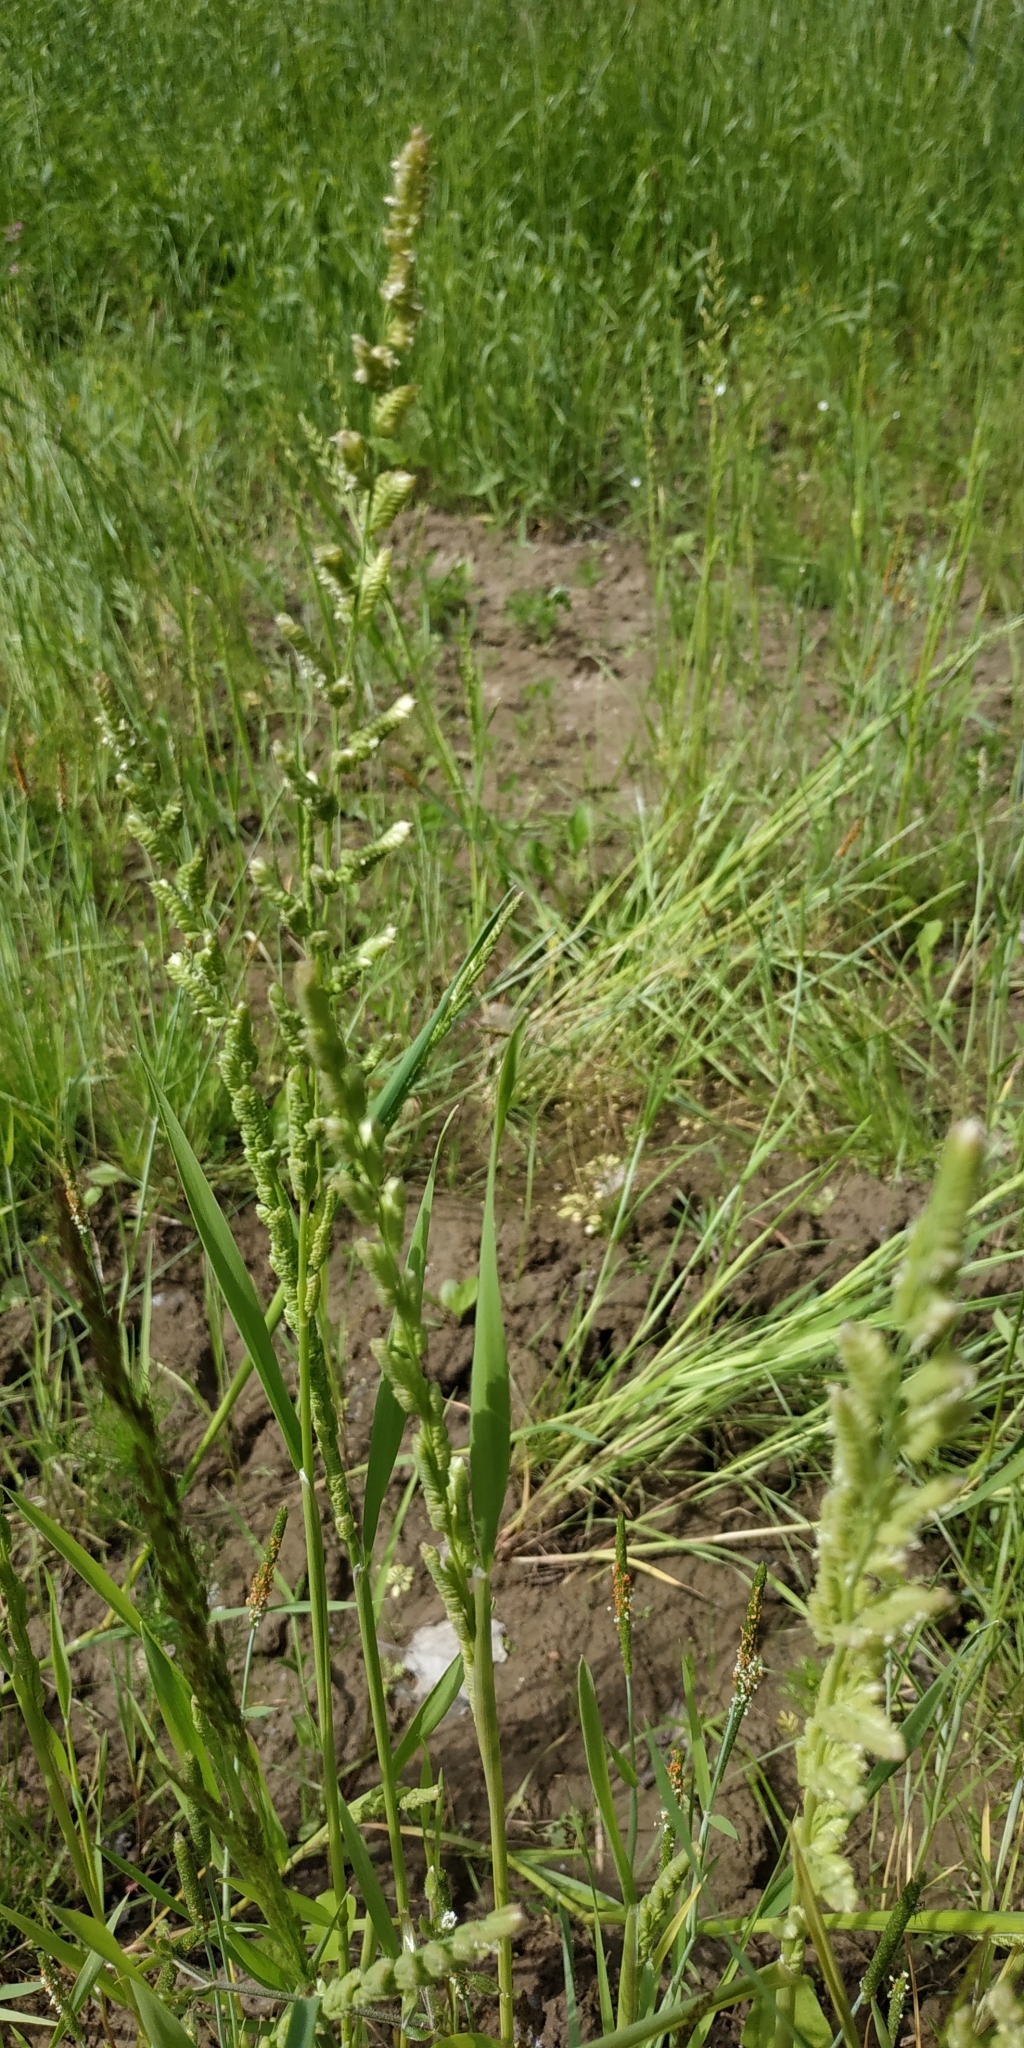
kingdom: Plantae
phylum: Tracheophyta
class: Liliopsida
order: Poales
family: Poaceae
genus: Beckmannia
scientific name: Beckmannia syzigachne
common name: American slough-grass
